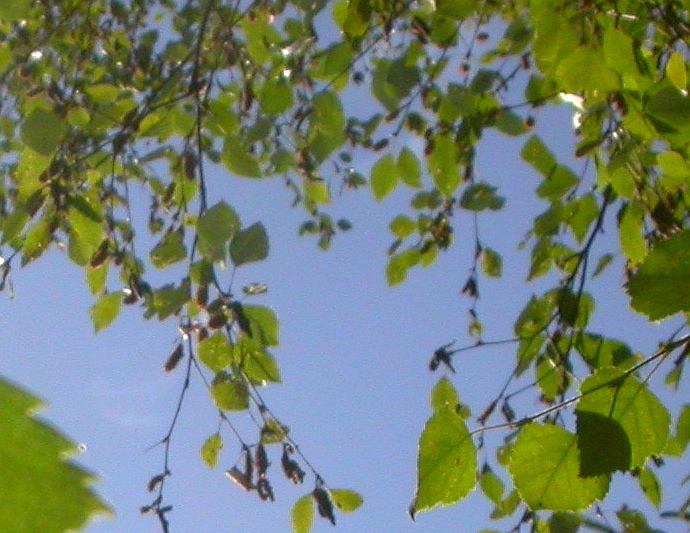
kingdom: Plantae
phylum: Tracheophyta
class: Magnoliopsida
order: Fagales
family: Betulaceae
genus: Betula
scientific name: Betula pubescens
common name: Downy birch
